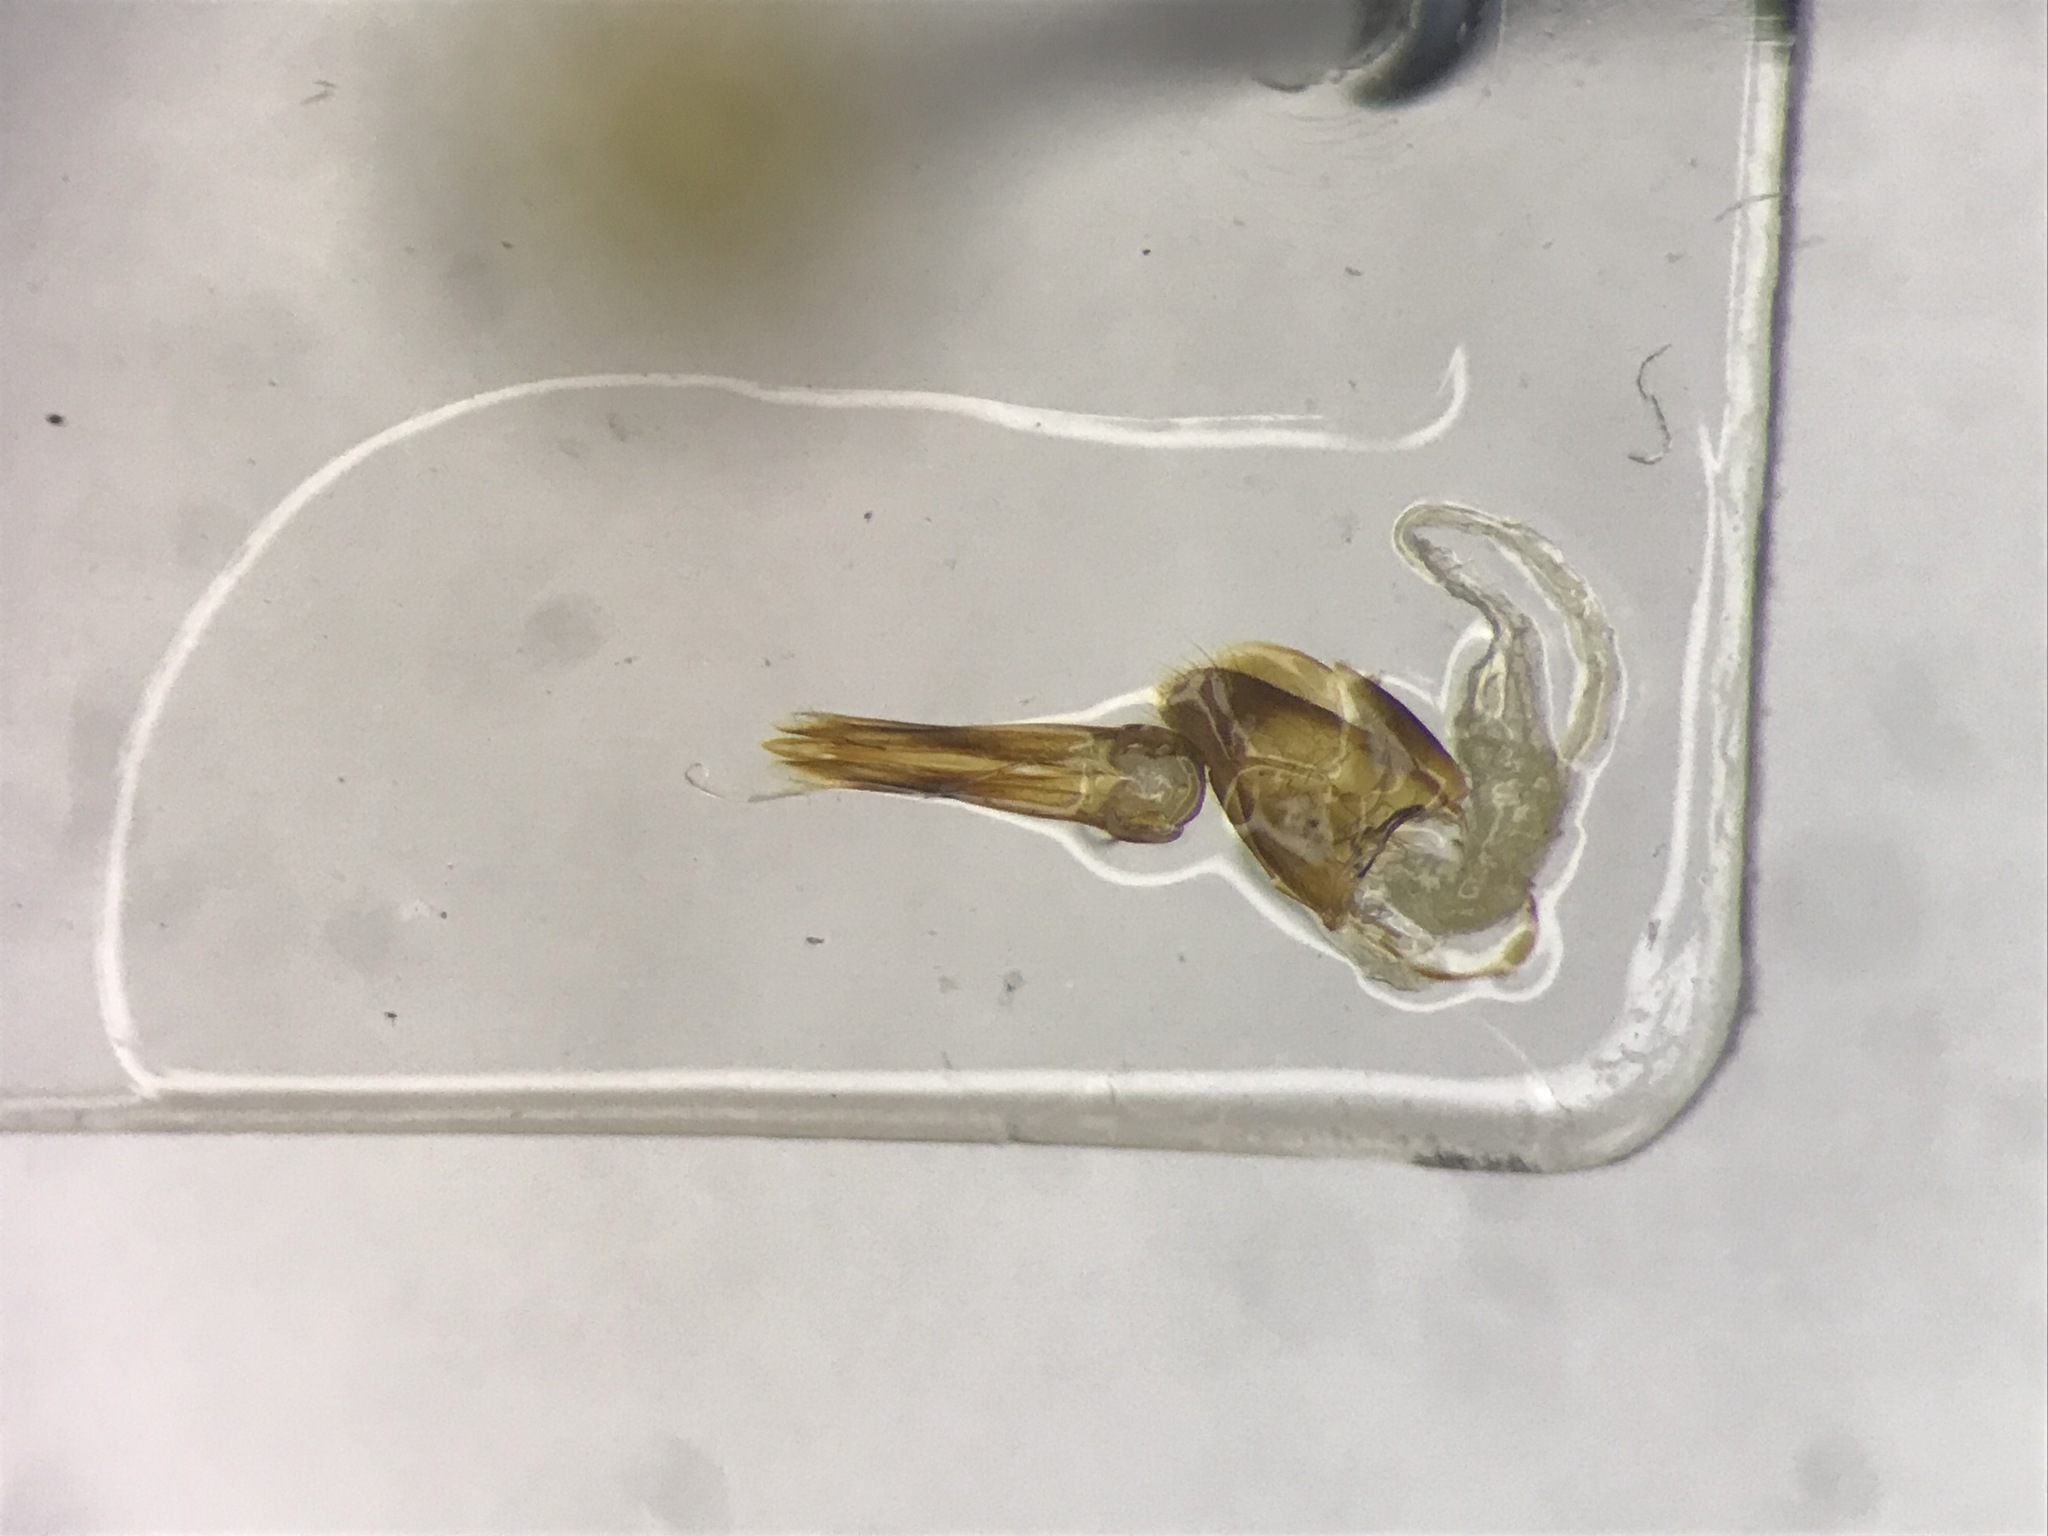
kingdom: Animalia
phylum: Arthropoda
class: Insecta
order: Coleoptera
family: Elateridae
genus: Ligmargus
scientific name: Ligmargus lecontei
